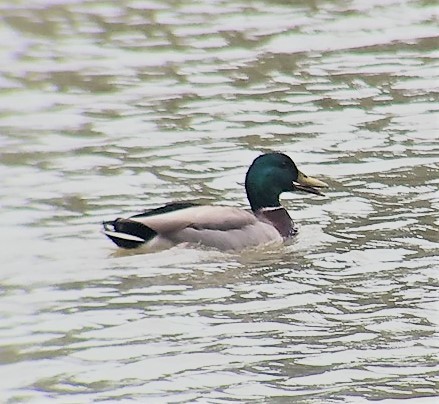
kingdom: Animalia
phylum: Chordata
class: Aves
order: Anseriformes
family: Anatidae
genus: Anas
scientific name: Anas platyrhynchos
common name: Mallard
